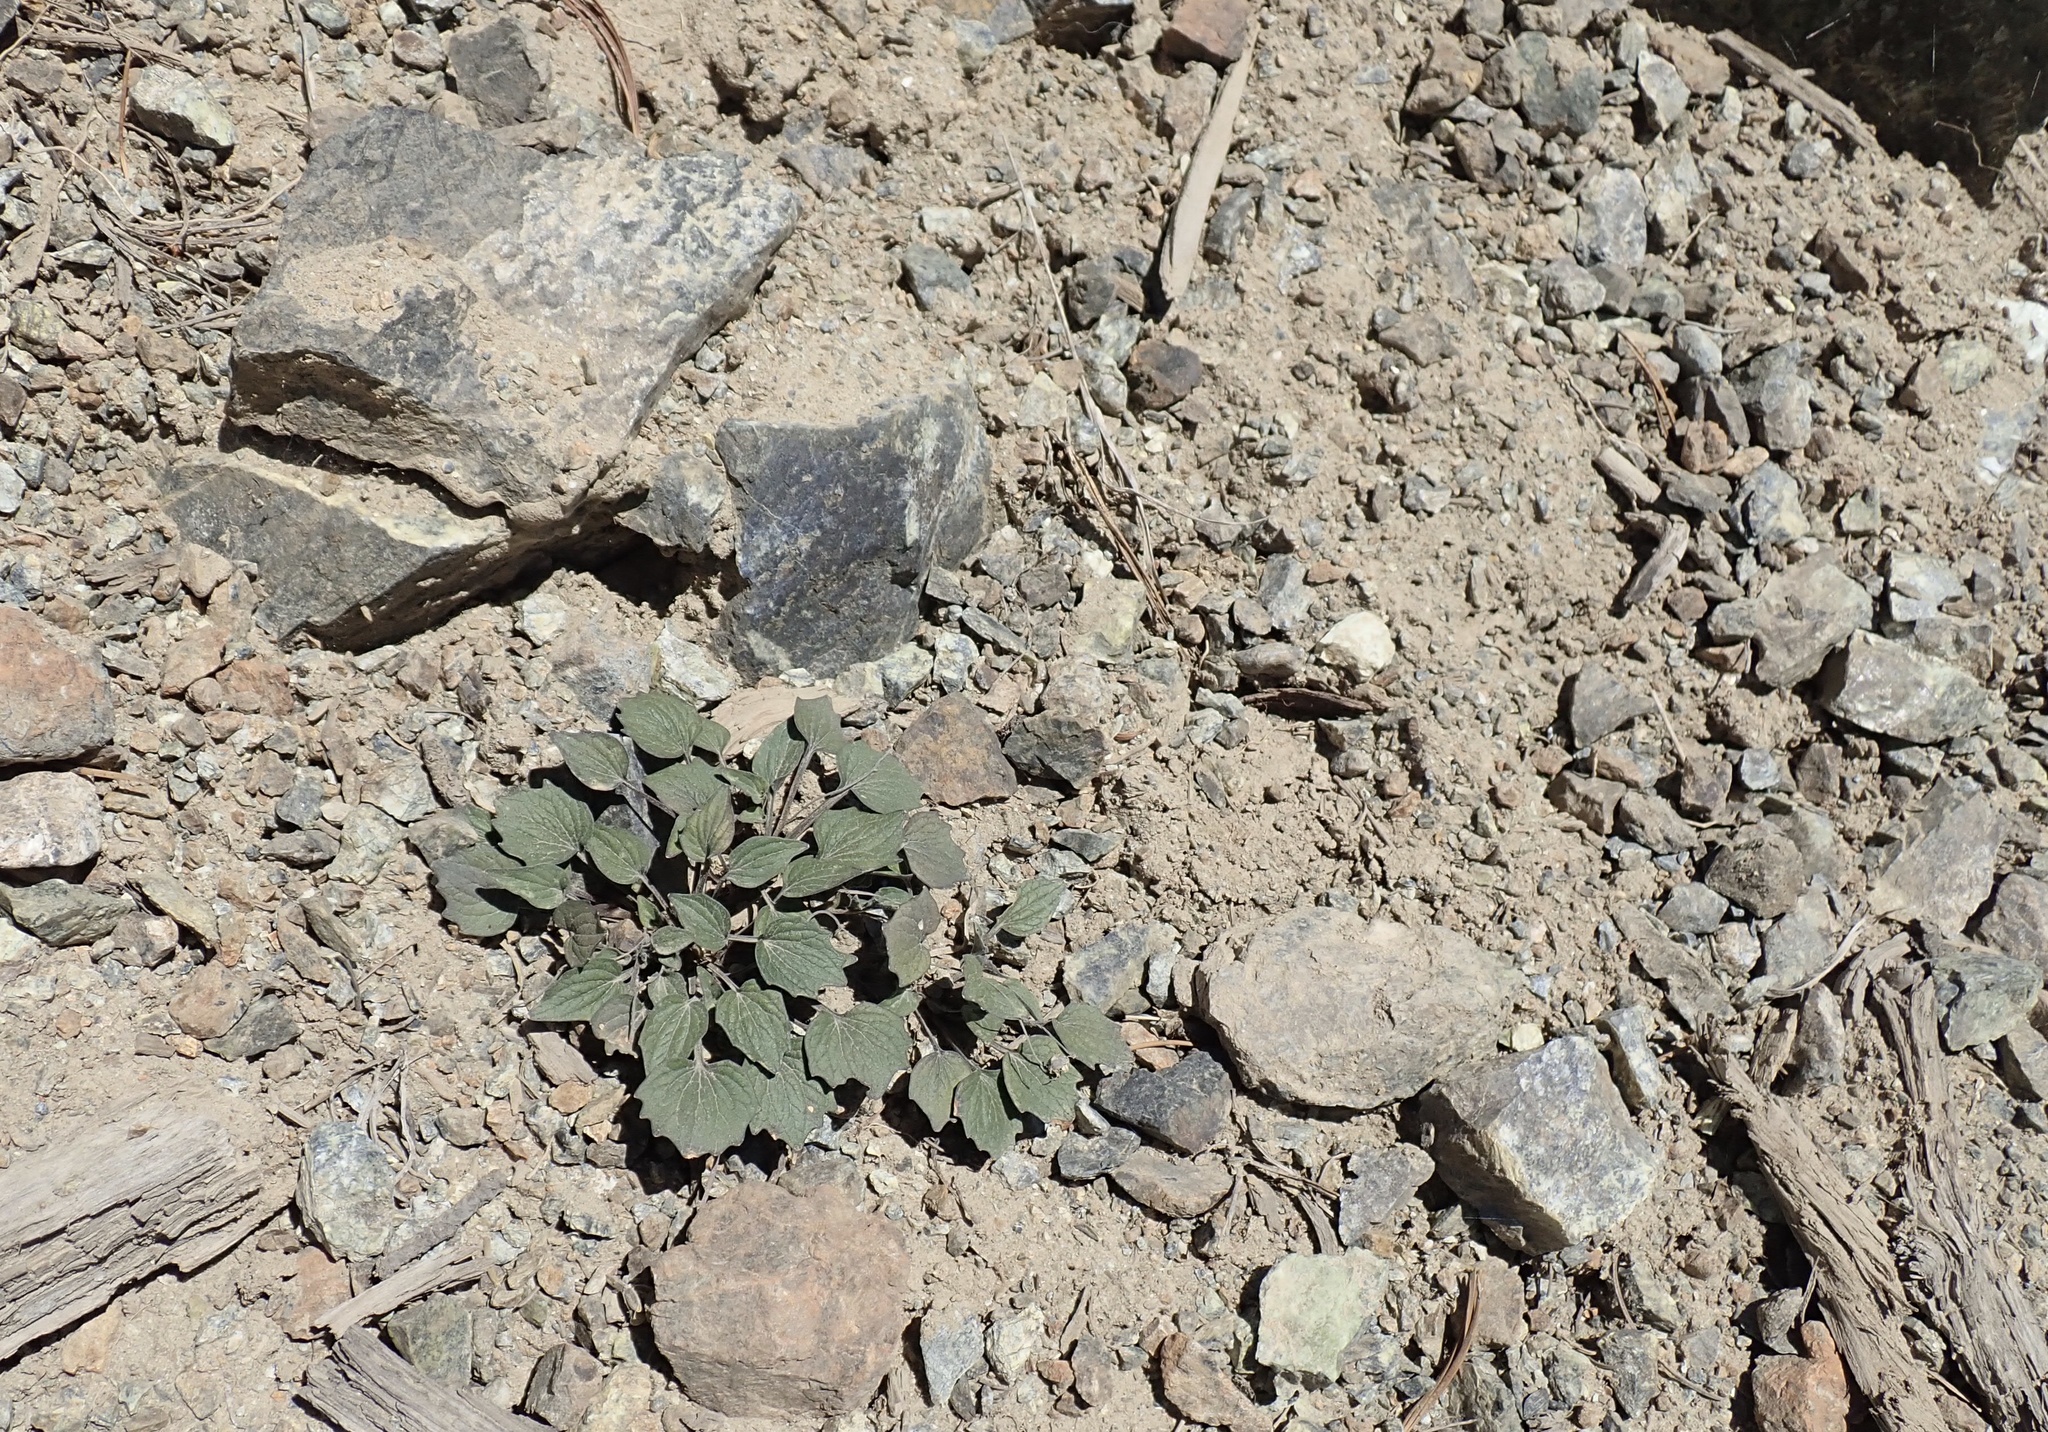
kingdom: Plantae
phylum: Tracheophyta
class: Magnoliopsida
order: Malpighiales
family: Violaceae
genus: Viola
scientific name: Viola purpurea
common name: Pine violet
